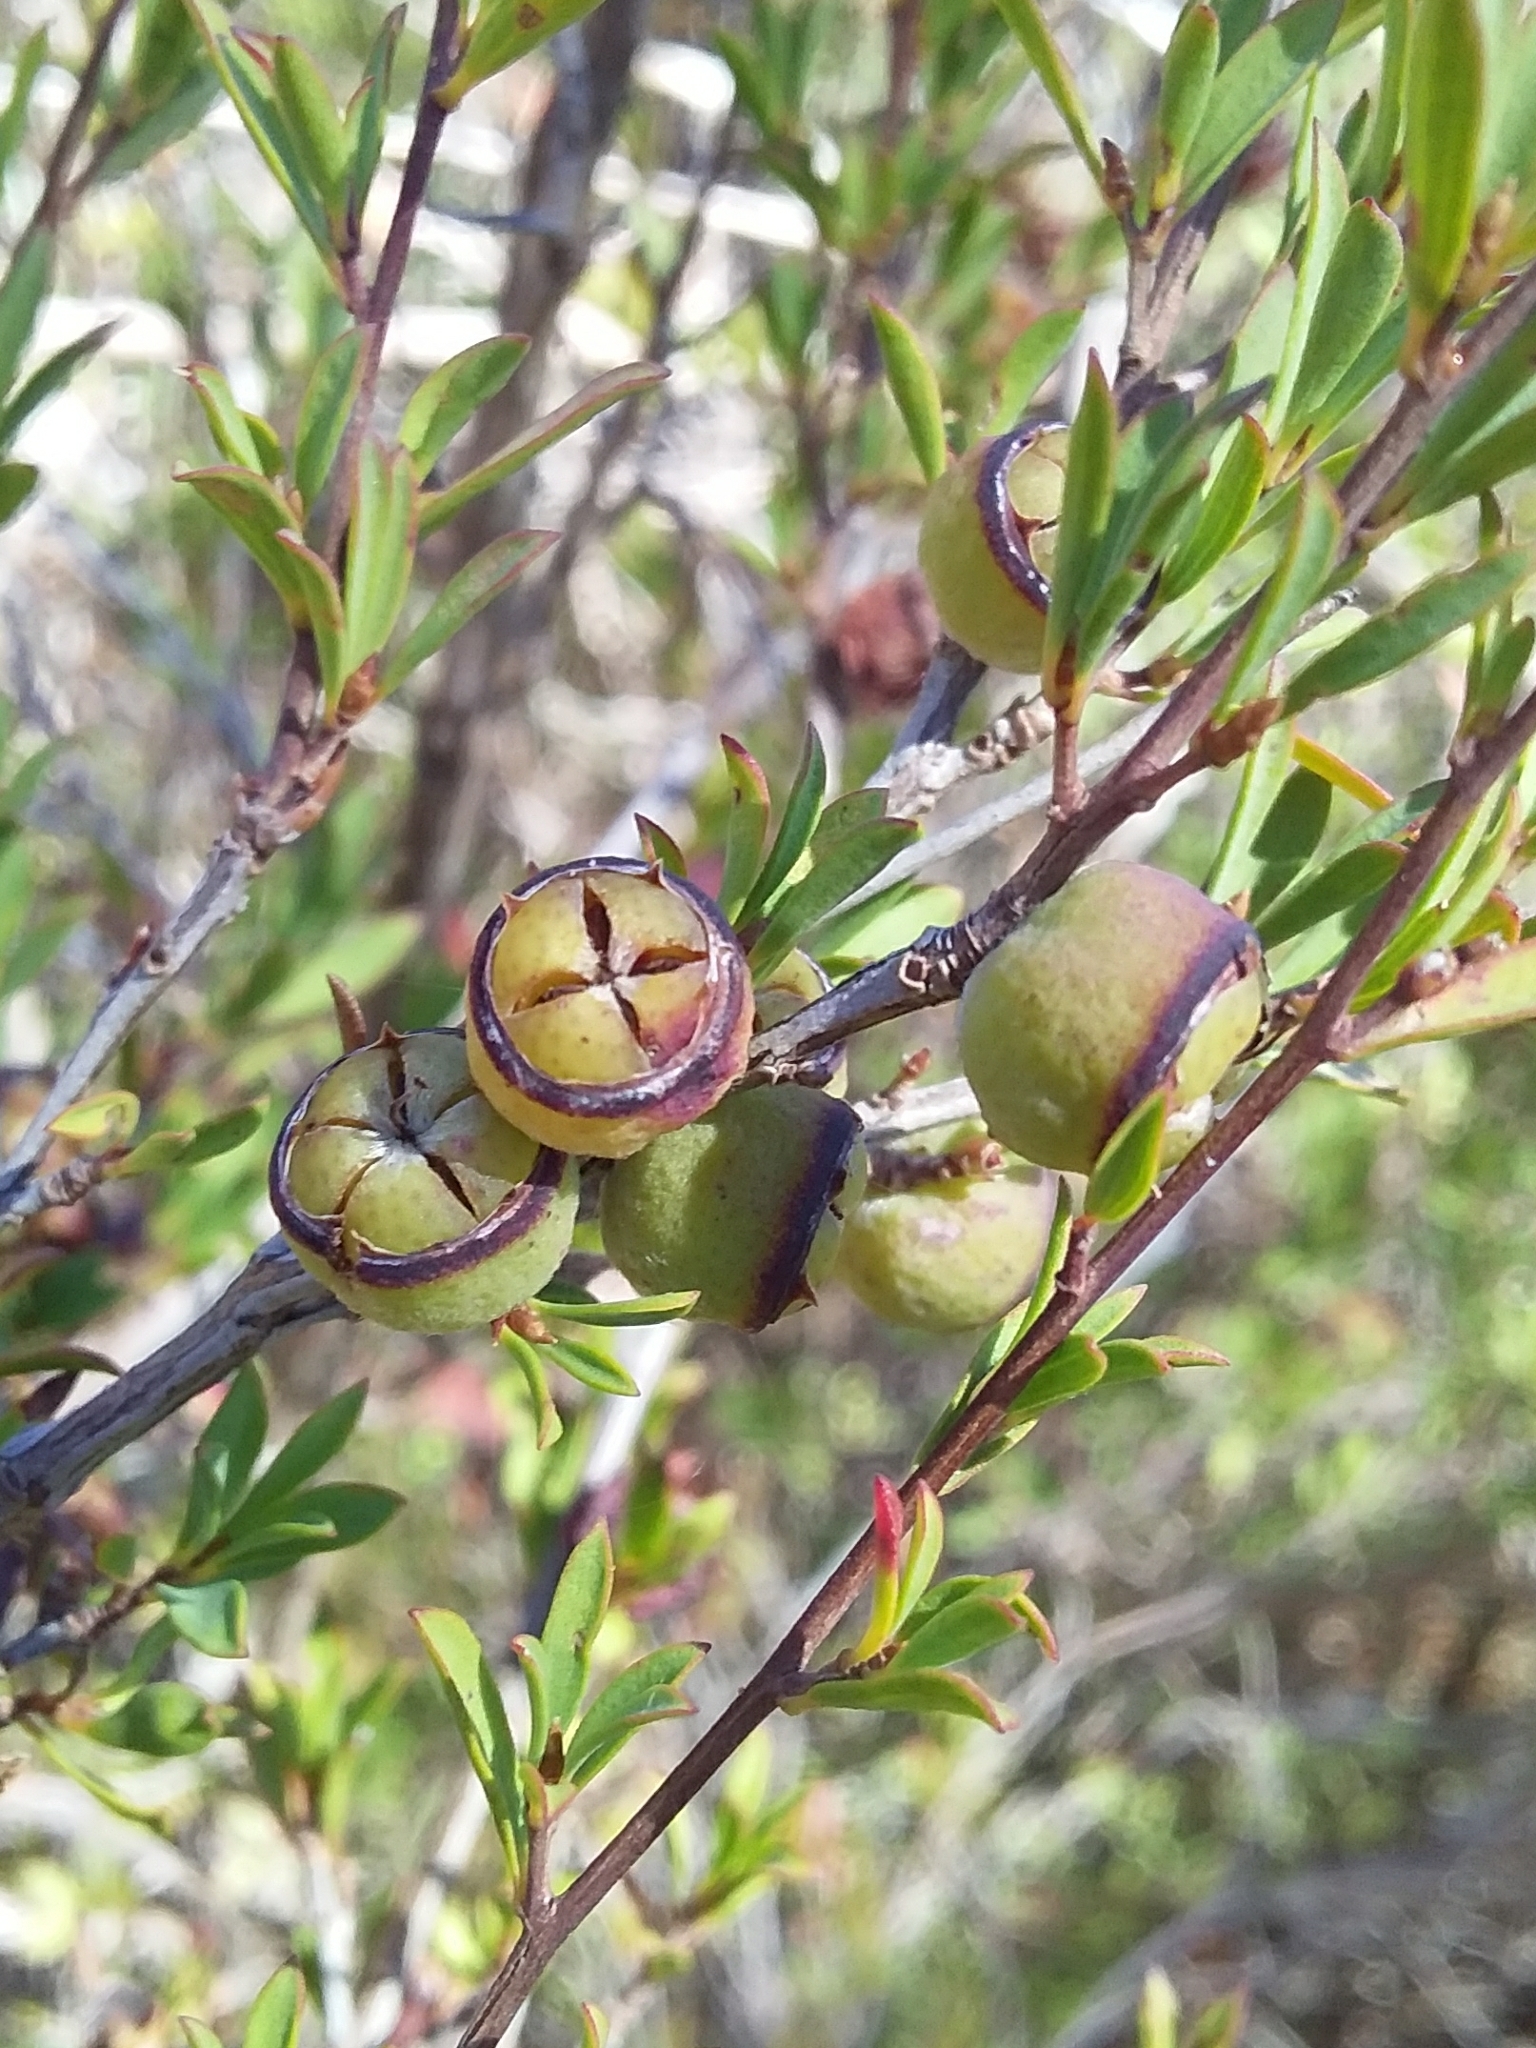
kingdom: Plantae
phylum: Tracheophyta
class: Magnoliopsida
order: Myrtales
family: Myrtaceae
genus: Leptospermum
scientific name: Leptospermum myrsinoides
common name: Heath teatree
